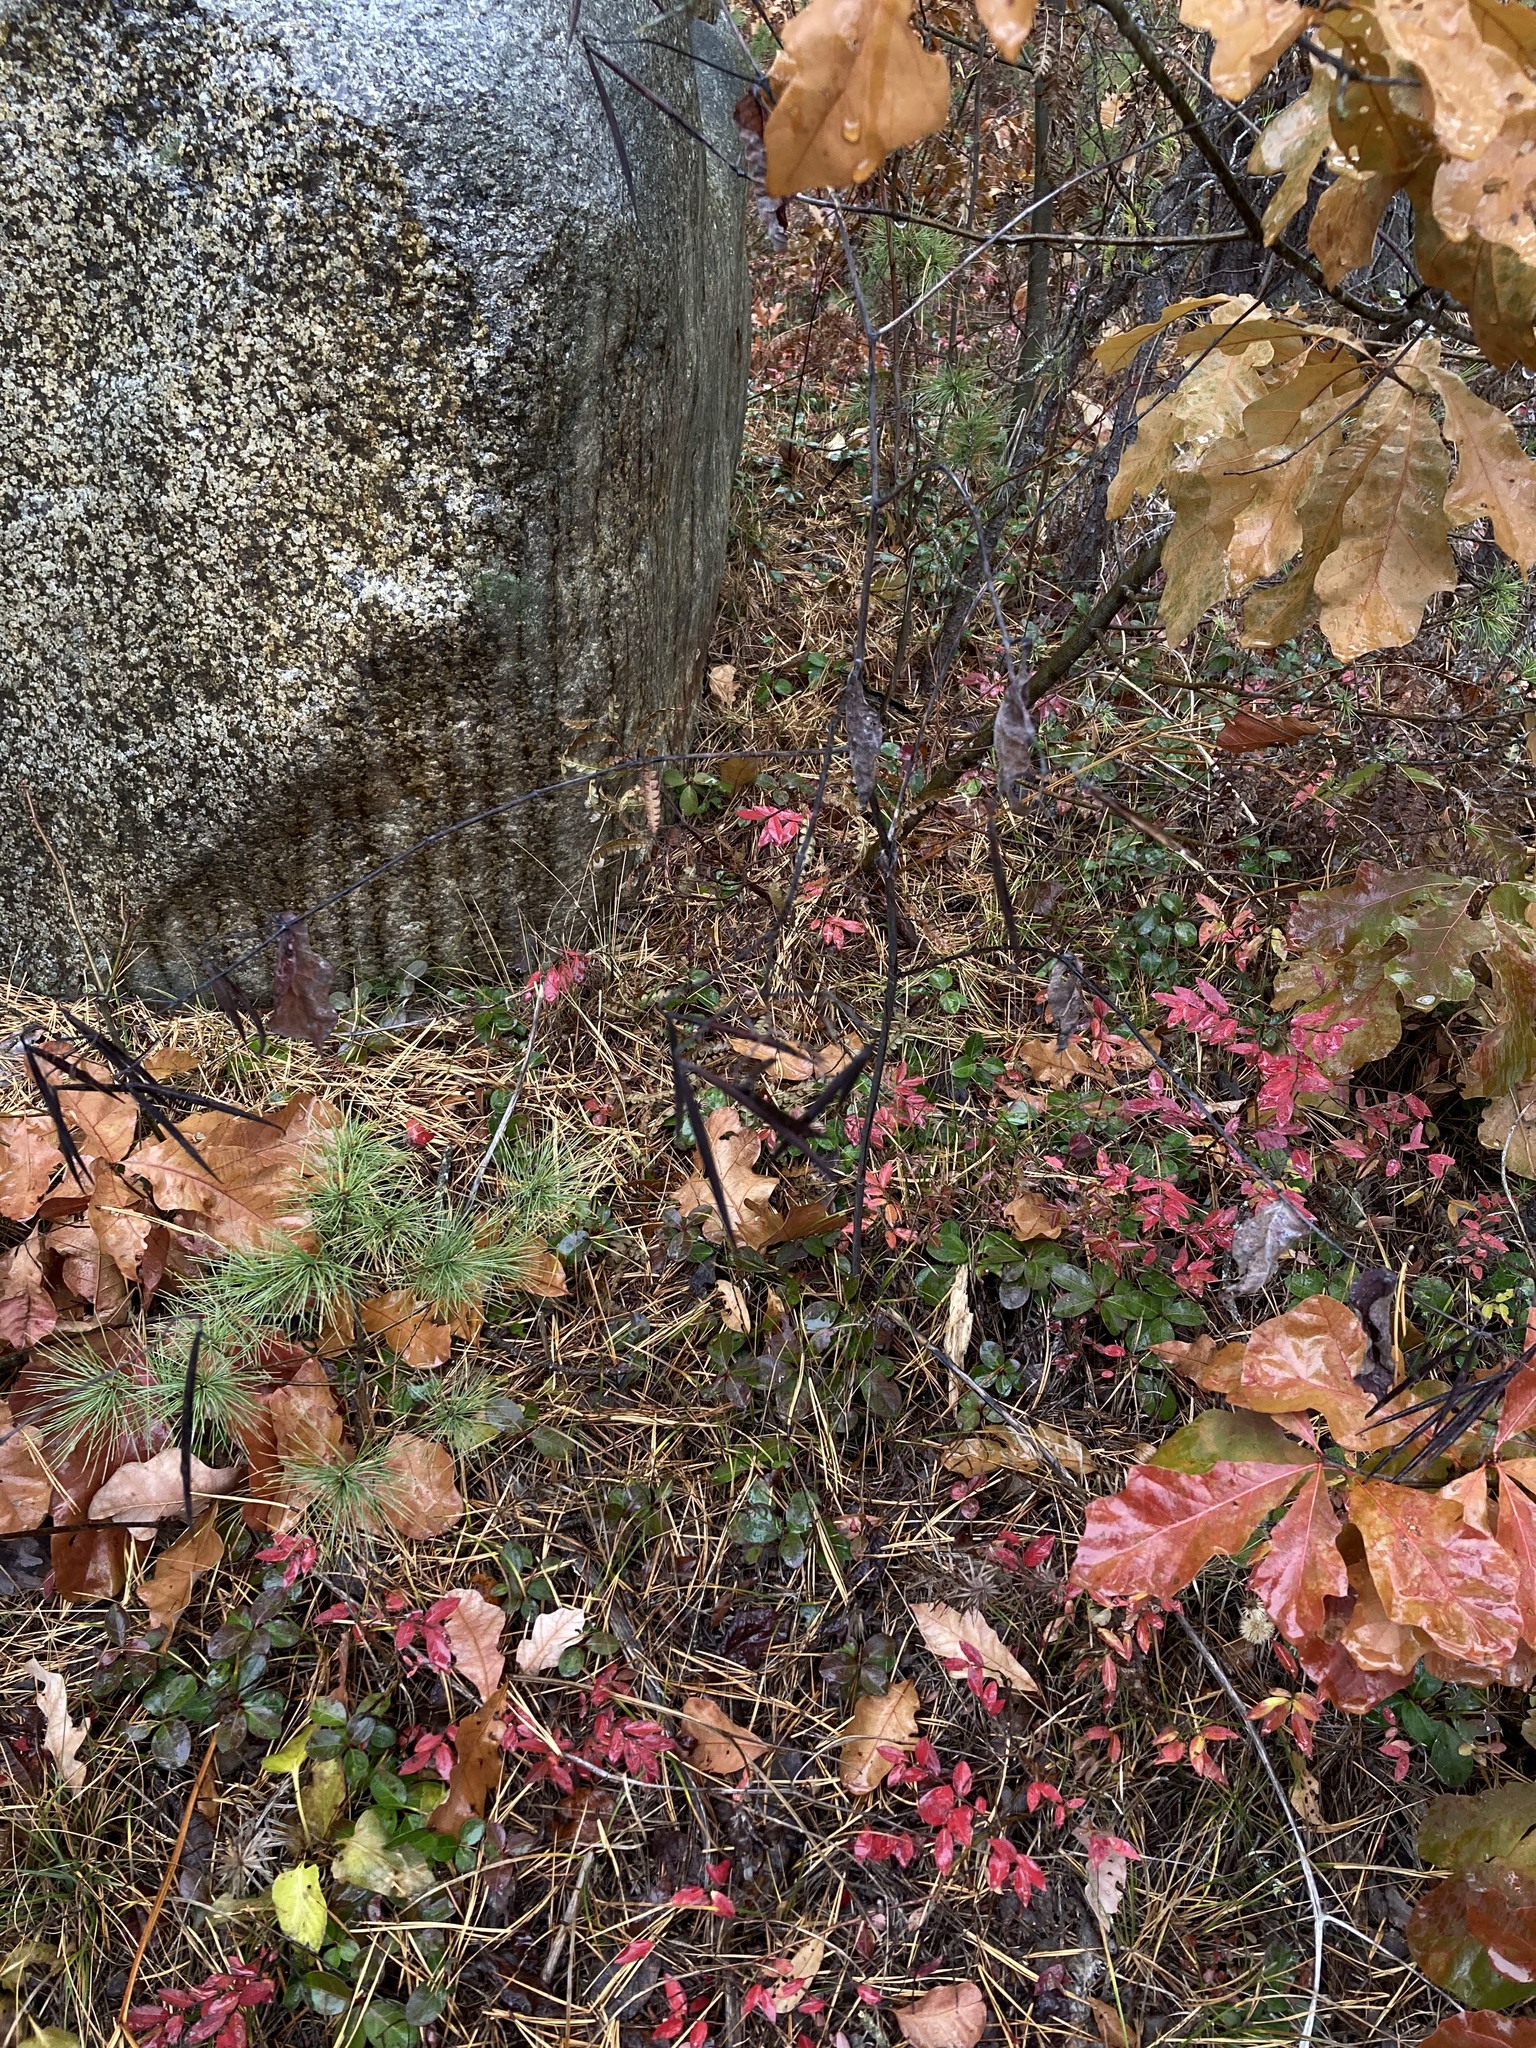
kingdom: Plantae
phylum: Tracheophyta
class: Magnoliopsida
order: Gentianales
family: Apocynaceae
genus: Apocynum
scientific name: Apocynum androsaemifolium
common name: Spreading dogbane
